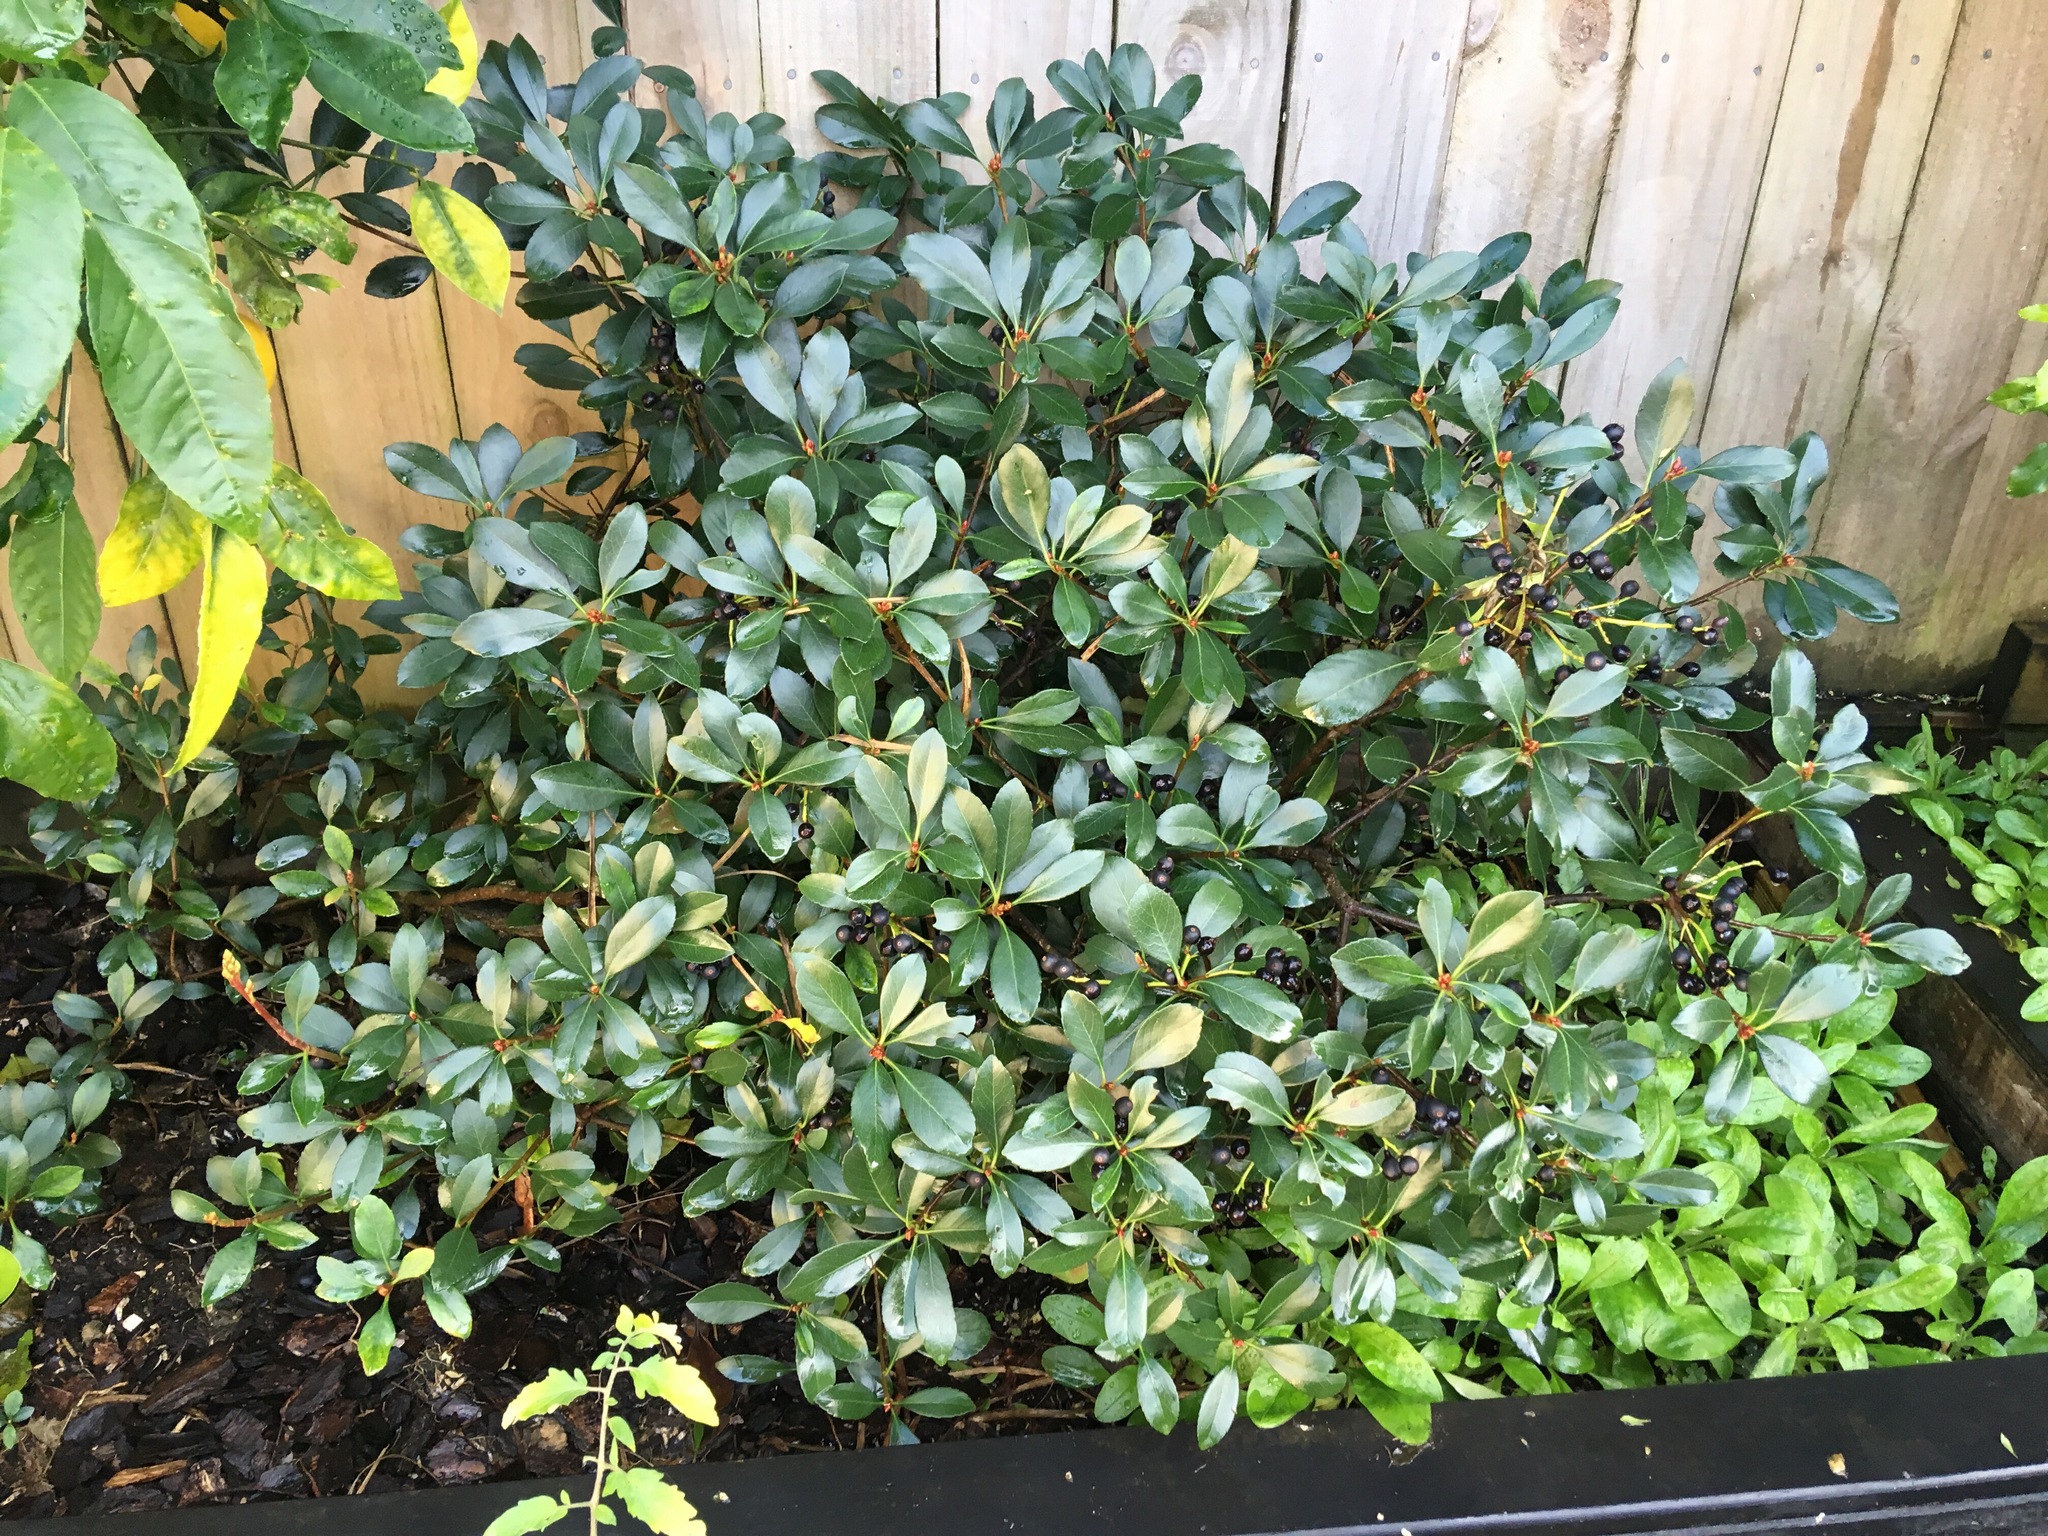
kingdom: Plantae
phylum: Tracheophyta
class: Magnoliopsida
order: Rosales
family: Rosaceae
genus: Rhaphiolepis
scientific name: Rhaphiolepis indica
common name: India-hawthorn
